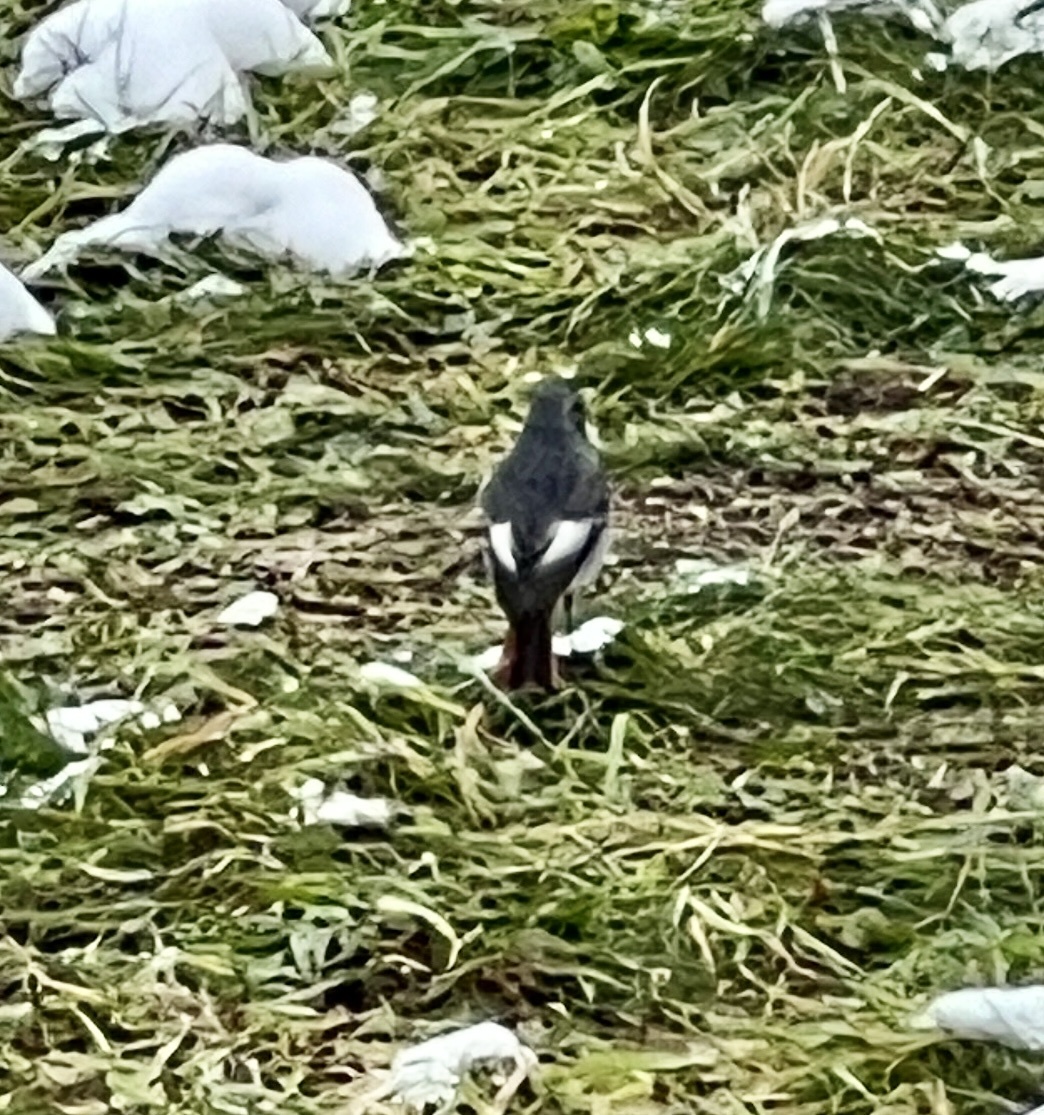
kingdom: Animalia
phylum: Chordata
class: Aves
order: Passeriformes
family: Muscicapidae
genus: Phoenicurus
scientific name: Phoenicurus ochruros
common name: Black redstart
